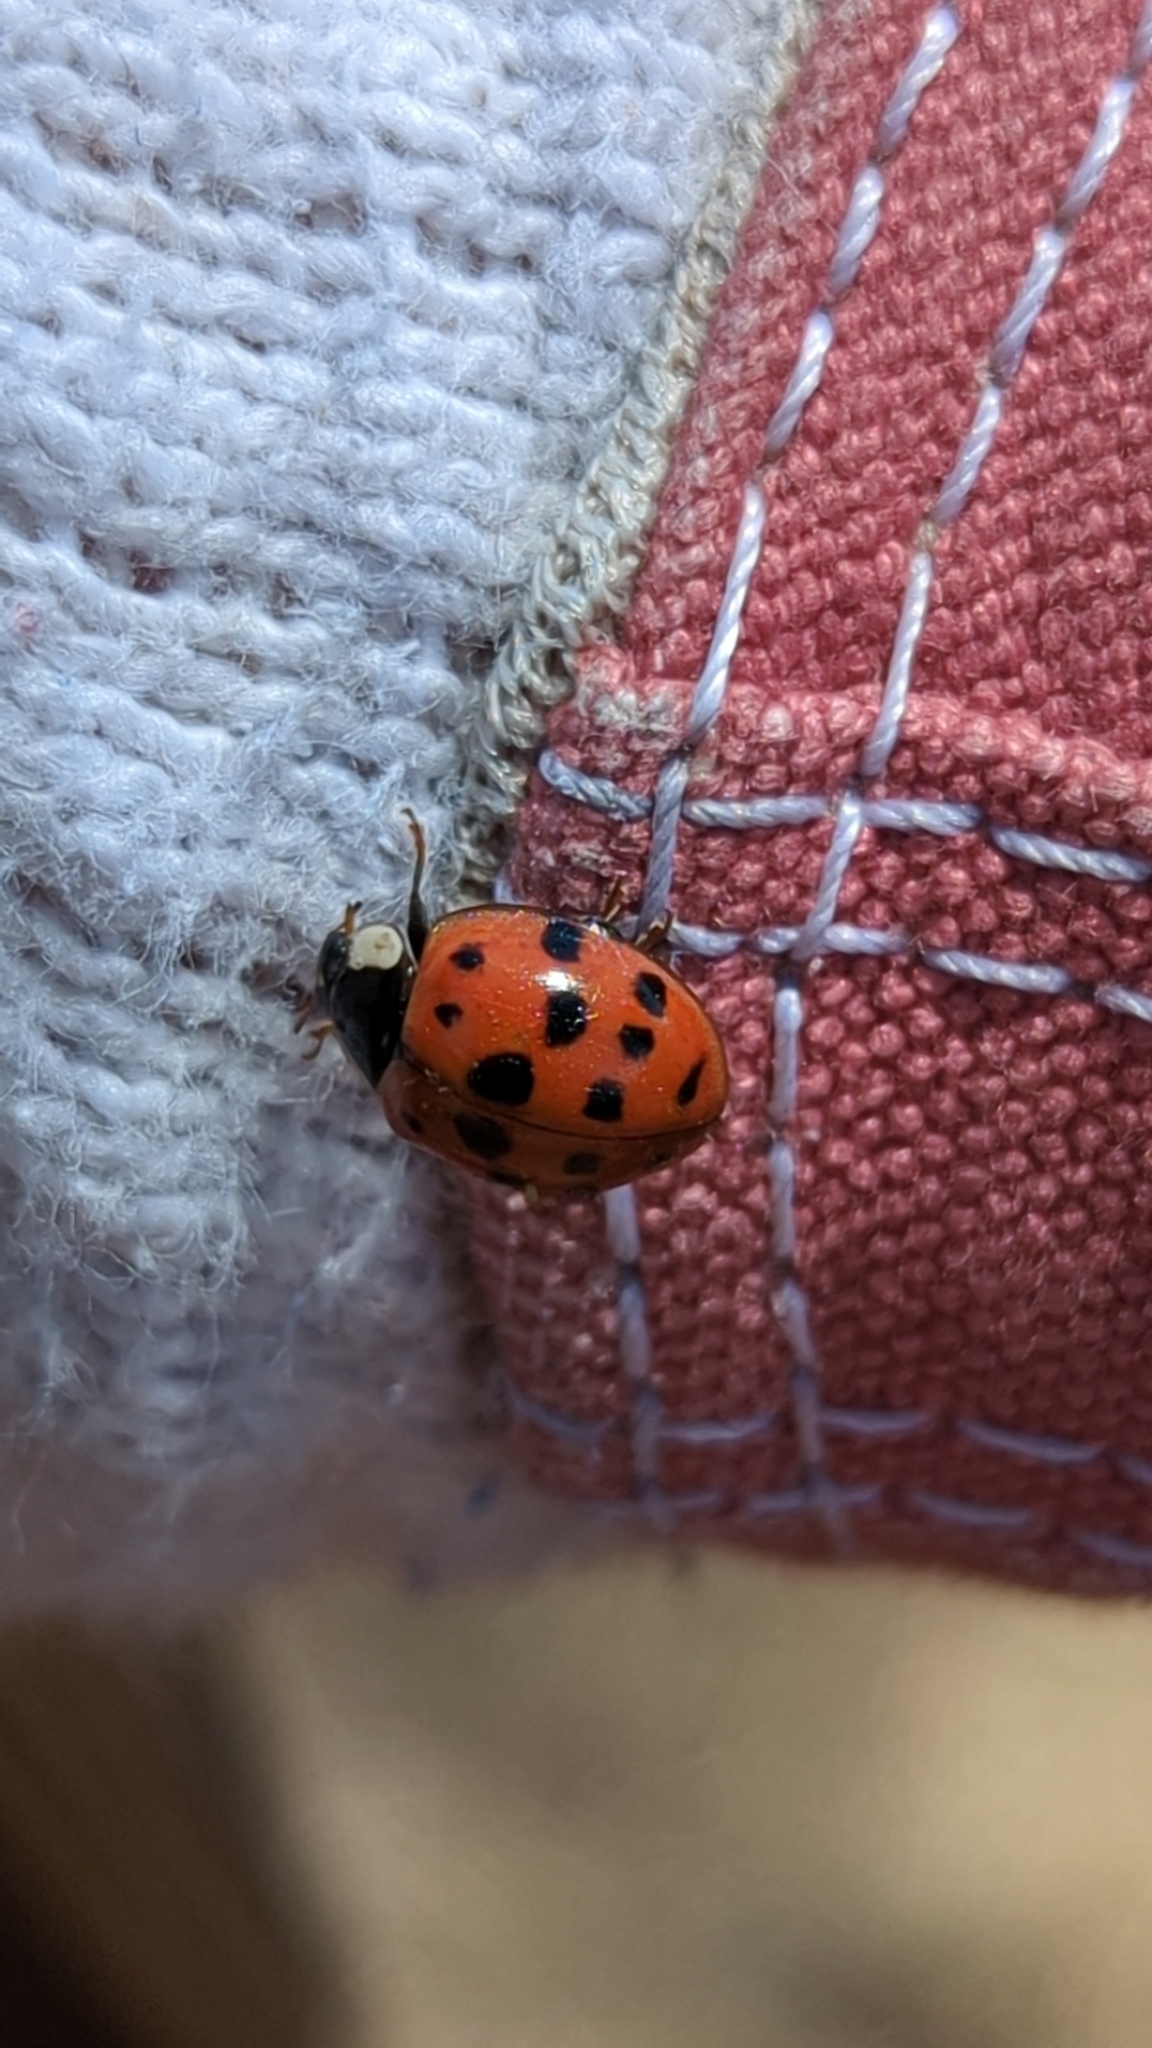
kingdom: Animalia
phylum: Arthropoda
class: Insecta
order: Coleoptera
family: Coccinellidae
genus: Harmonia
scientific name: Harmonia axyridis
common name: Harlequin ladybird
